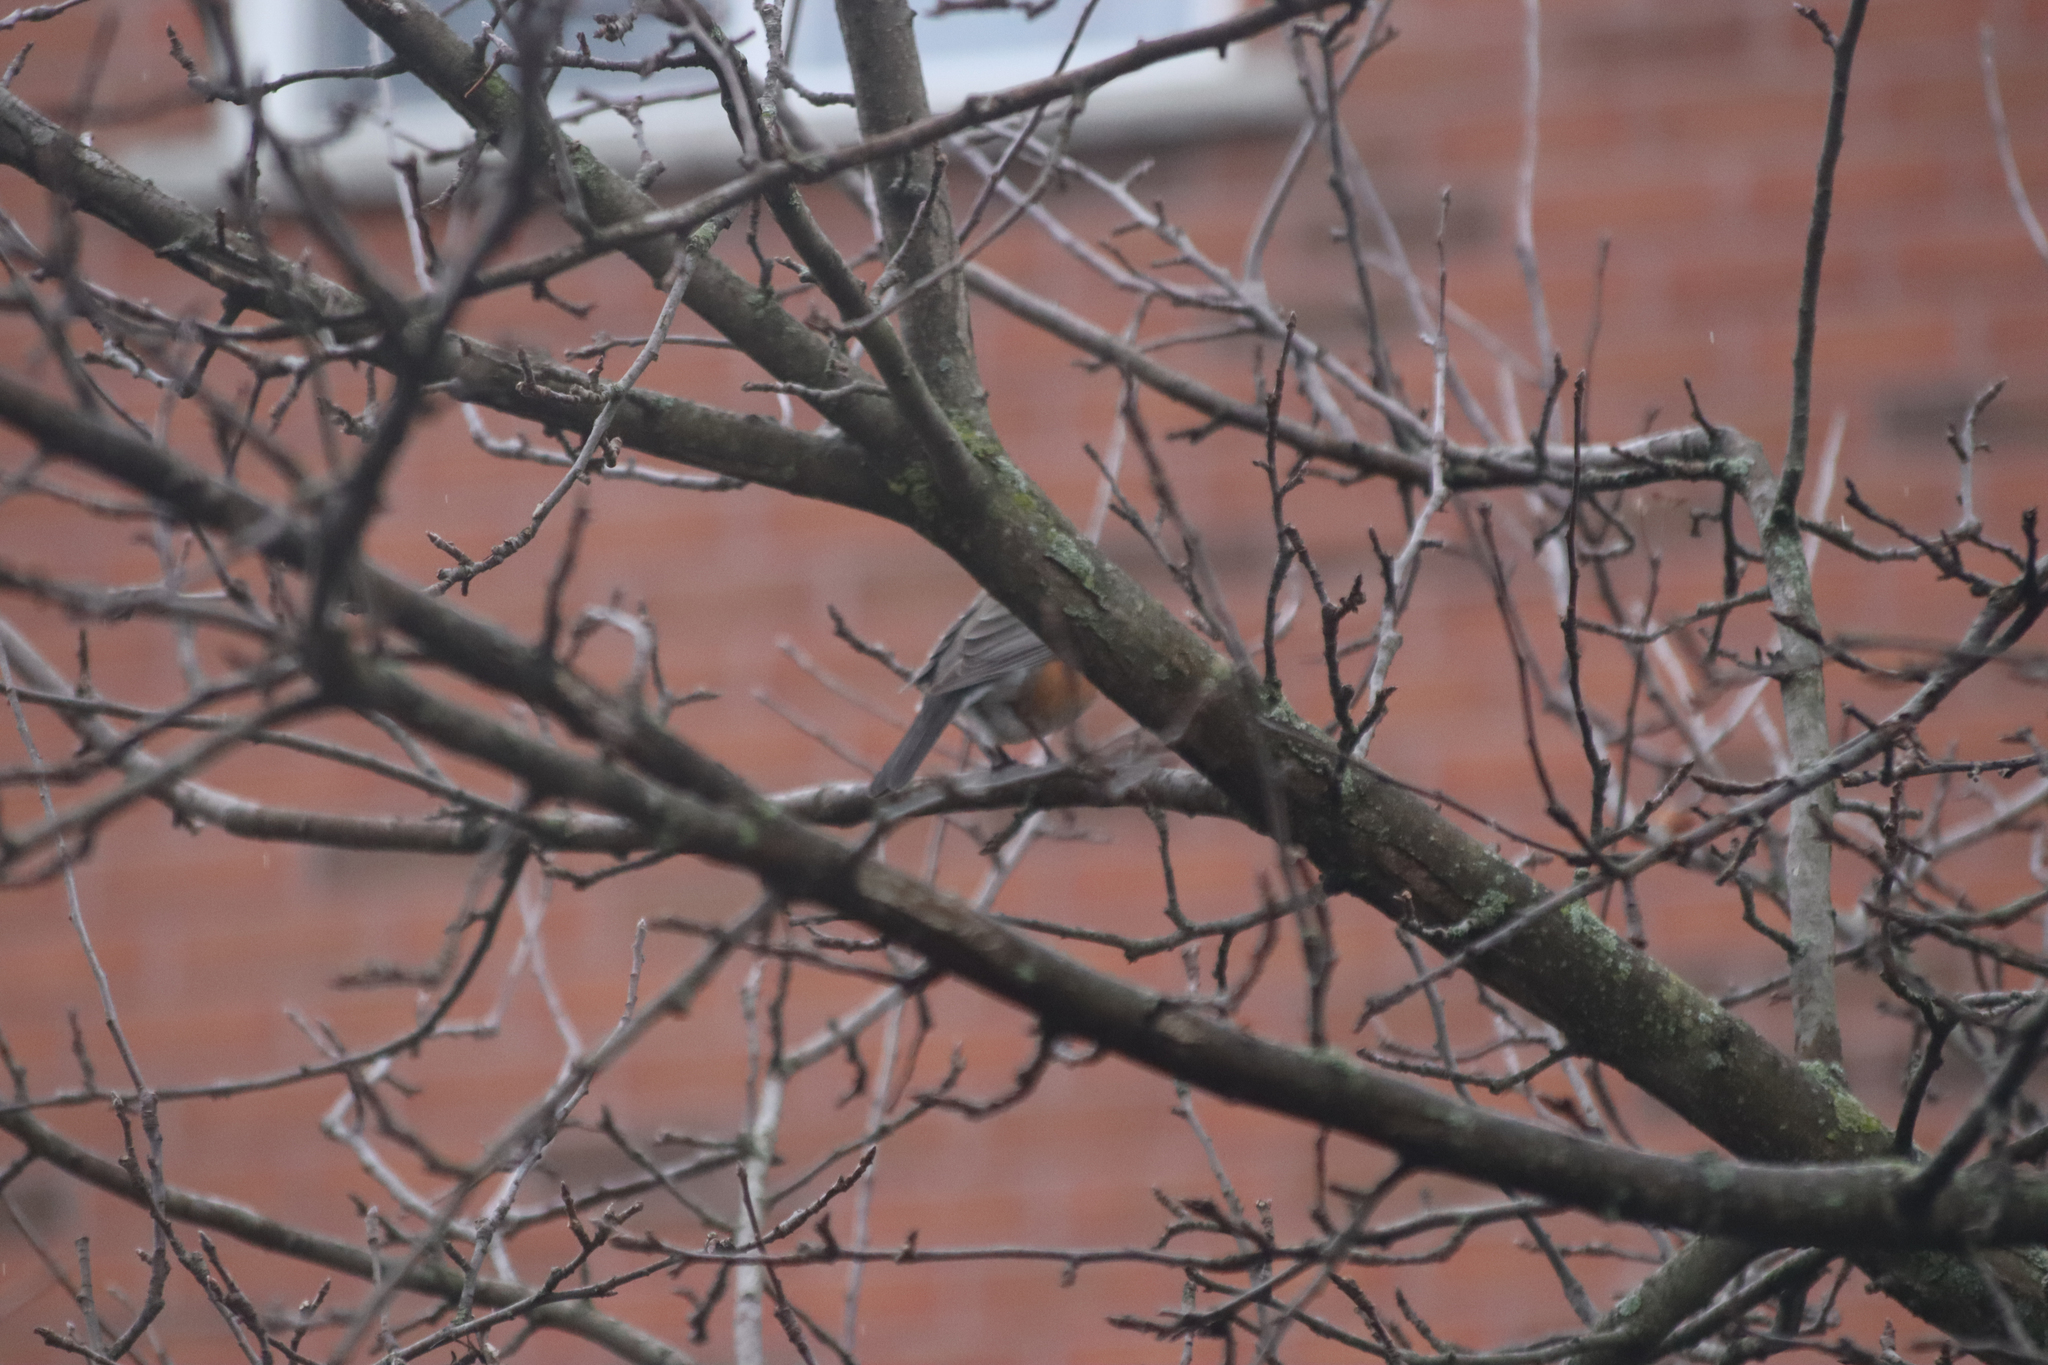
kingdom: Animalia
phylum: Chordata
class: Aves
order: Passeriformes
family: Turdidae
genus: Turdus
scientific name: Turdus migratorius
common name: American robin
